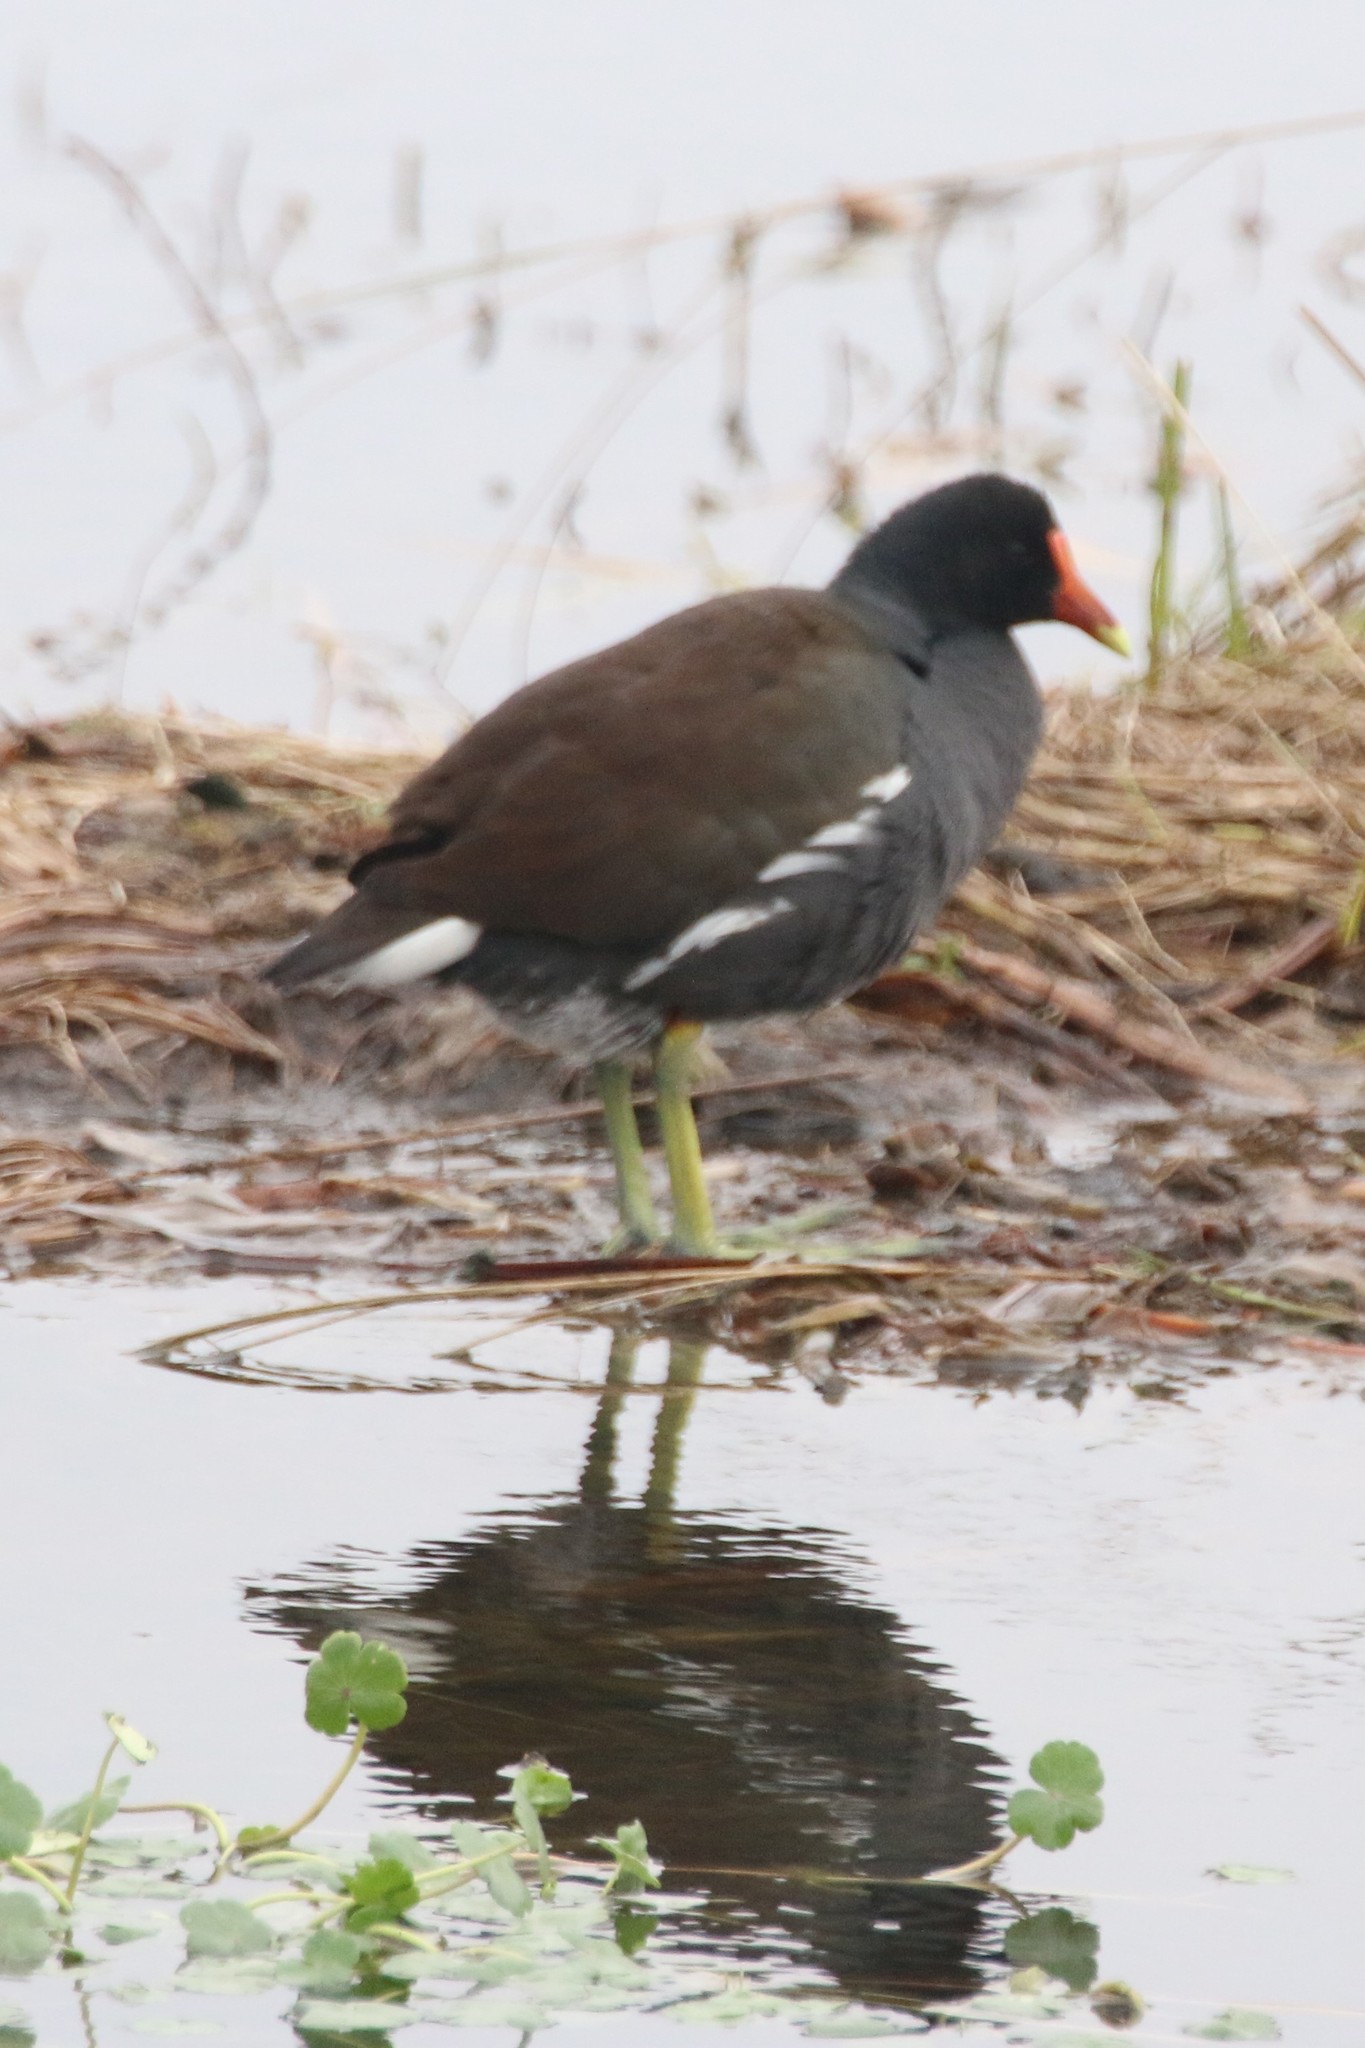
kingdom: Animalia
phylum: Chordata
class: Aves
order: Gruiformes
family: Rallidae
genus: Gallinula
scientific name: Gallinula chloropus
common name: Common moorhen
